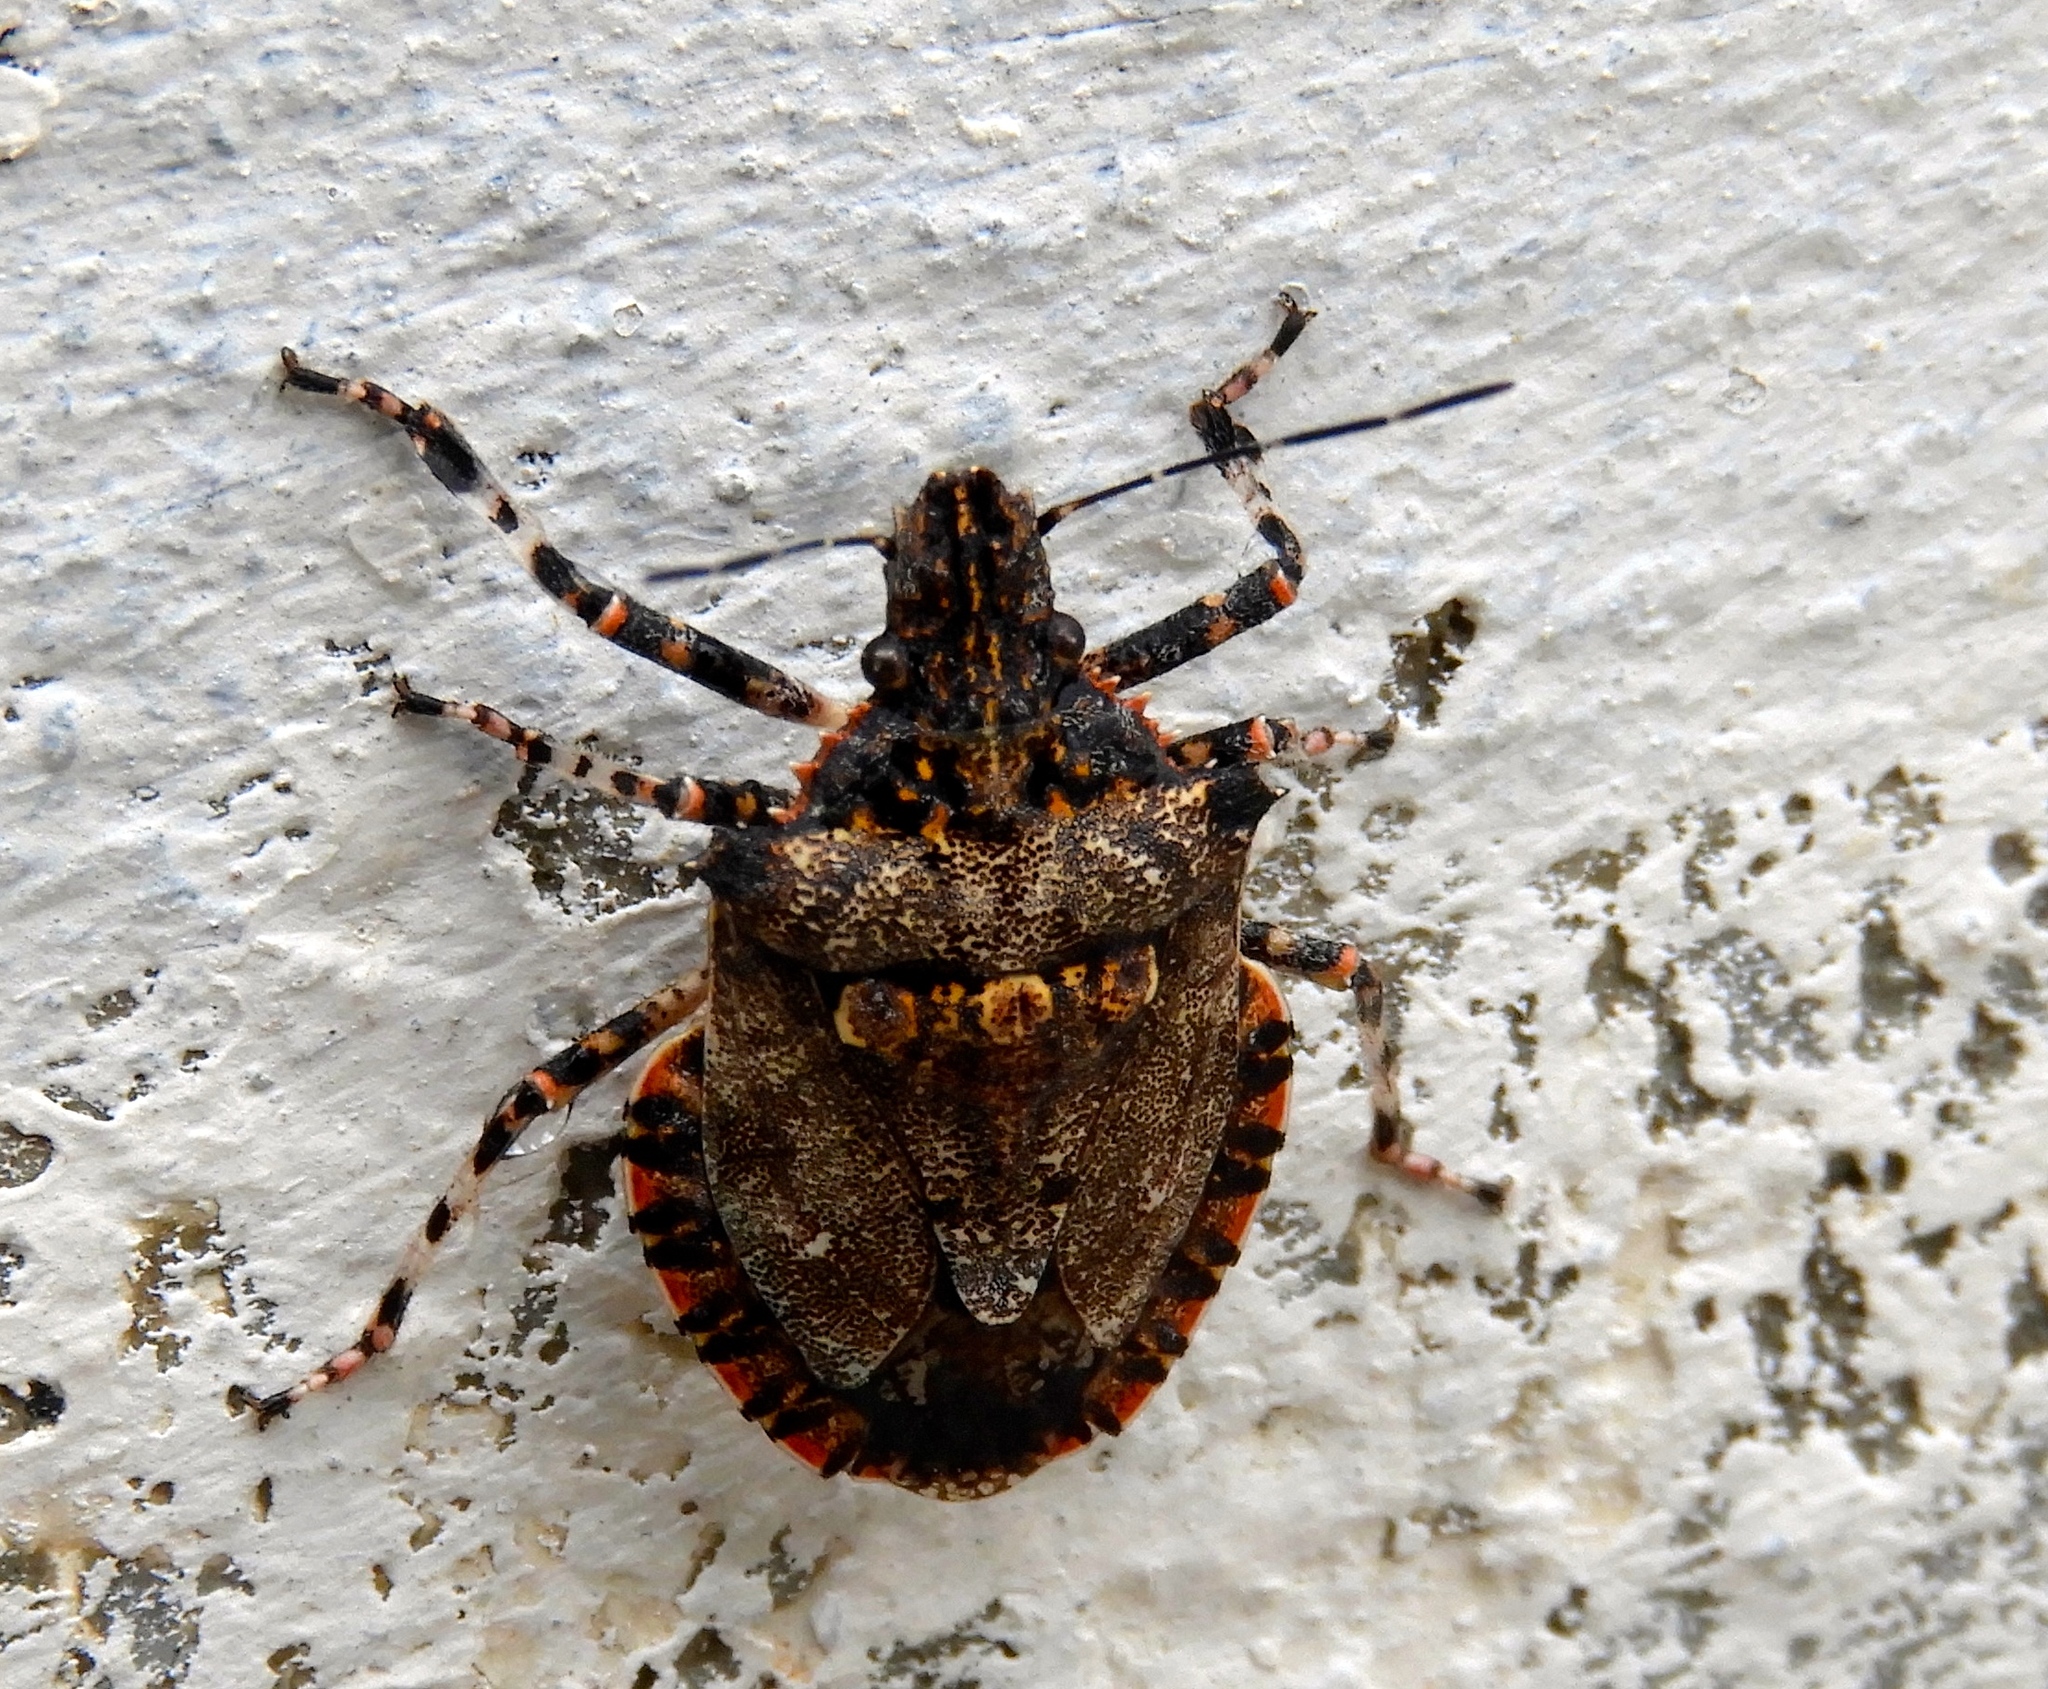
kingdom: Animalia
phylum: Arthropoda
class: Insecta
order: Hemiptera
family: Pentatomidae
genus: Brochymena
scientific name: Brochymena
